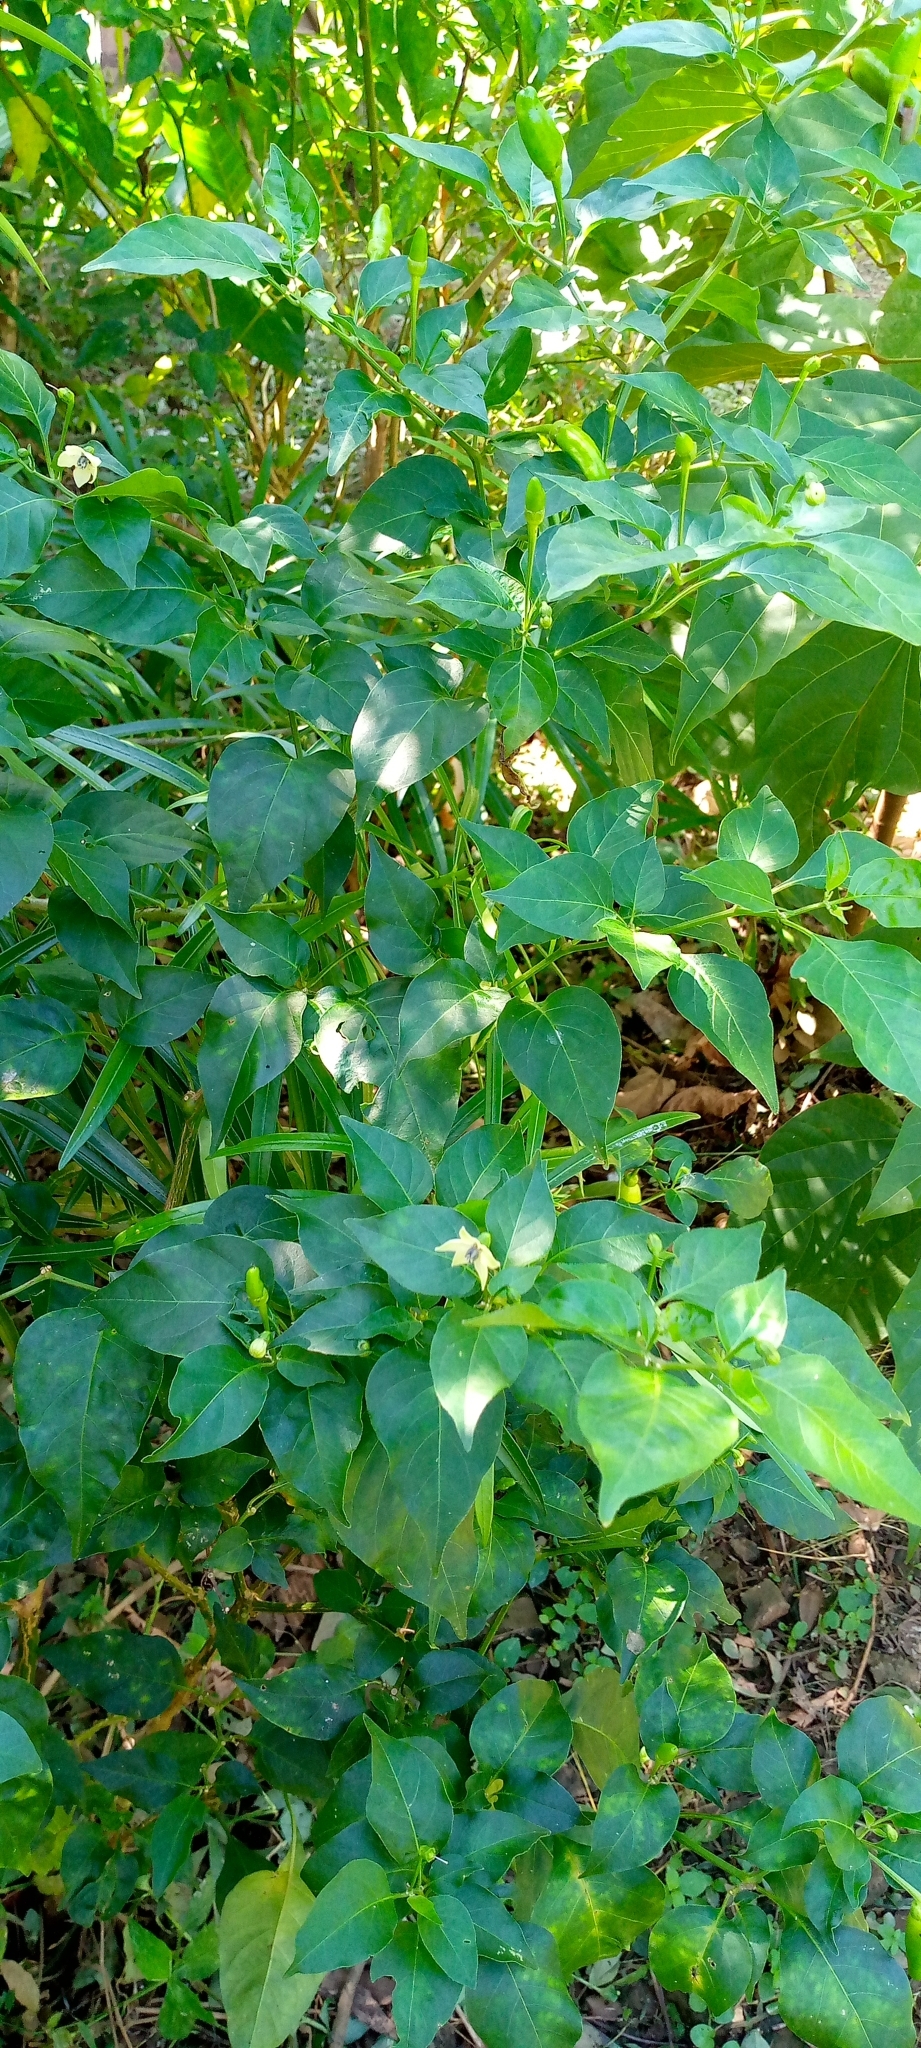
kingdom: Plantae
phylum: Tracheophyta
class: Magnoliopsida
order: Solanales
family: Solanaceae
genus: Capsicum
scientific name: Capsicum annuum
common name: Sweet pepper
